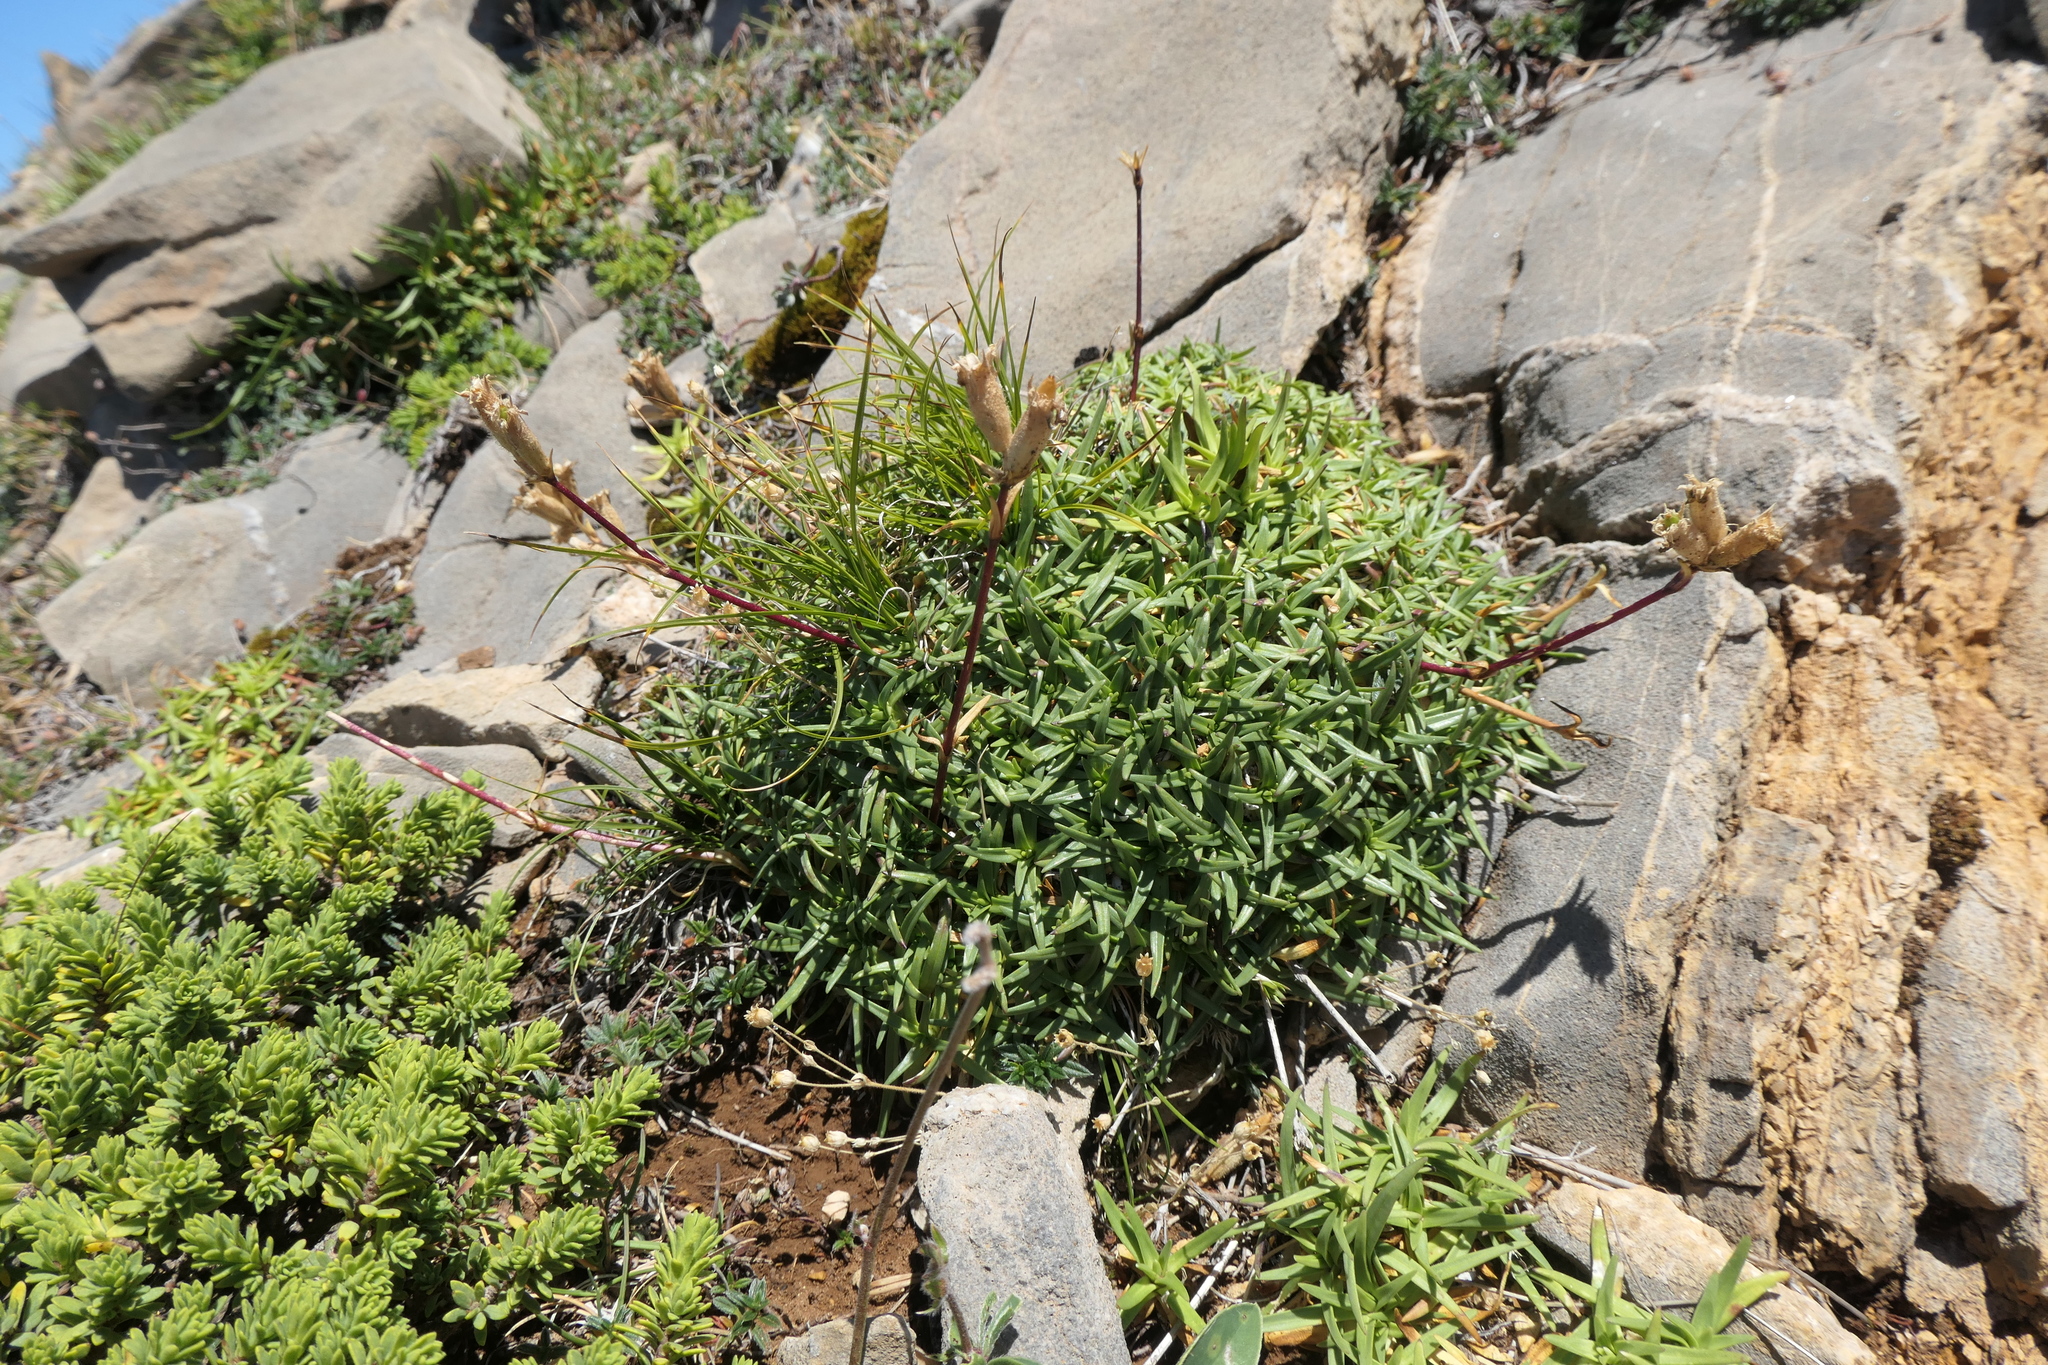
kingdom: Plantae
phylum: Tracheophyta
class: Magnoliopsida
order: Caryophyllales
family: Caryophyllaceae
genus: Saponaria
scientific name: Saponaria caespitosa
